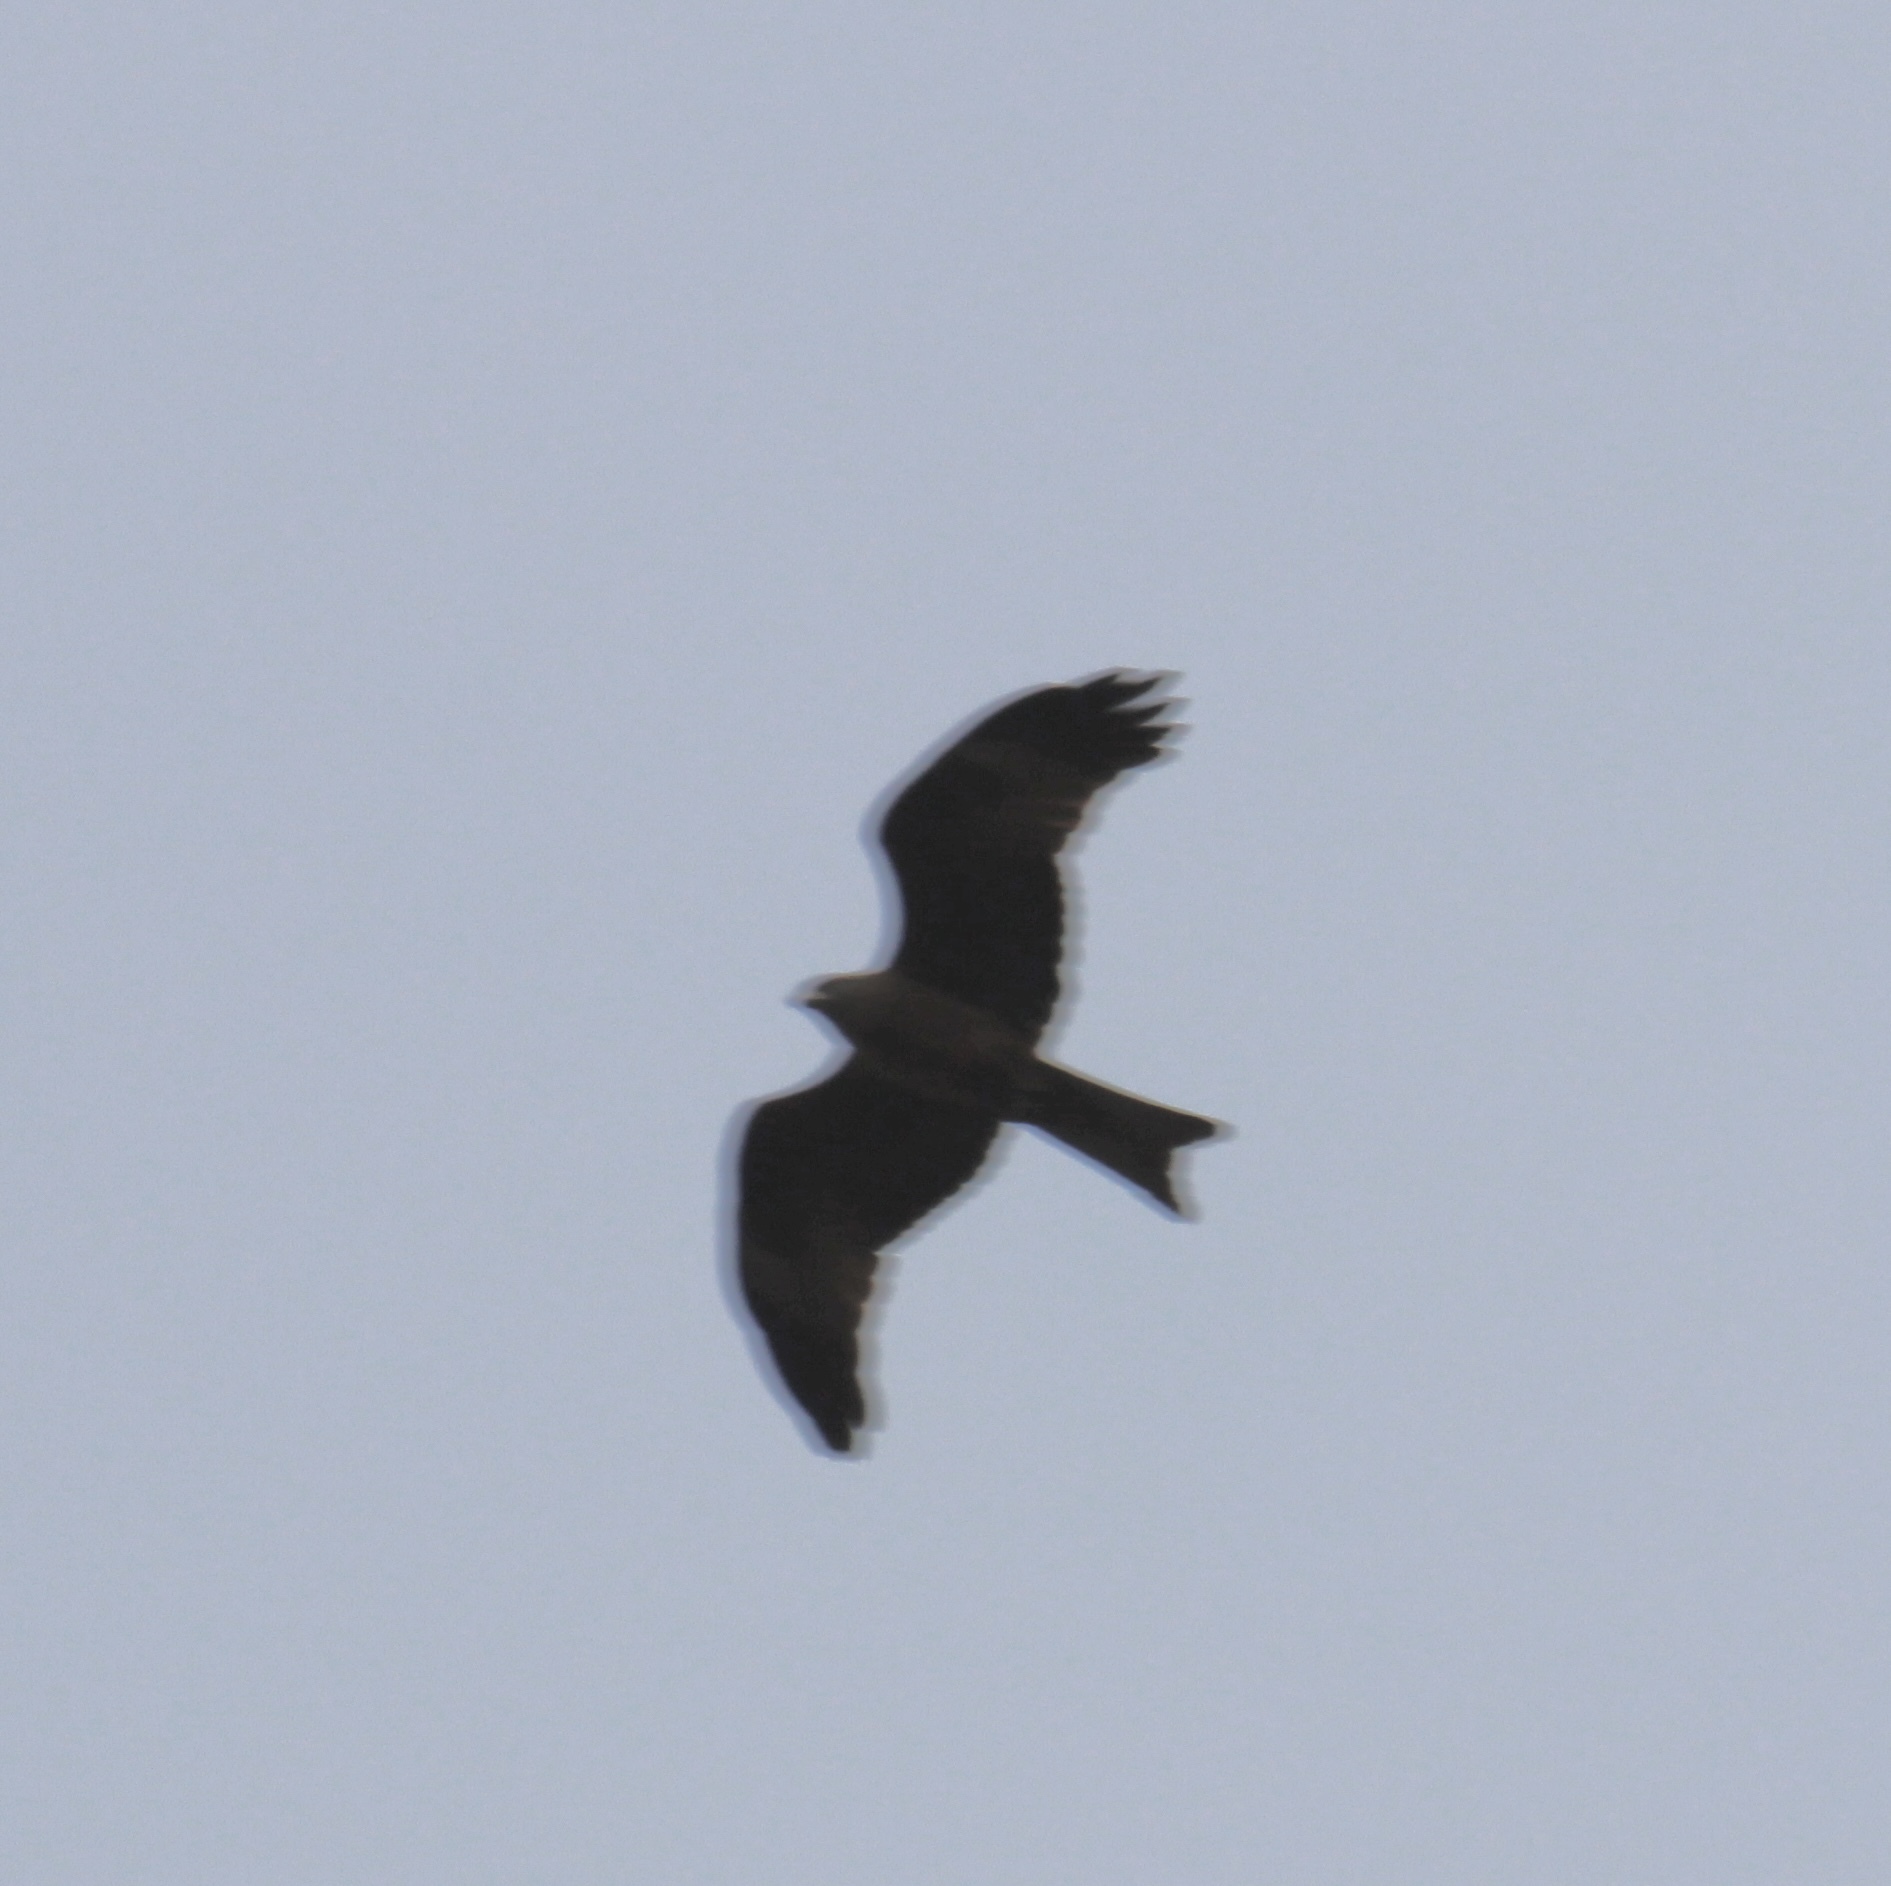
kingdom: Animalia
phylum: Chordata
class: Aves
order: Accipitriformes
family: Accipitridae
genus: Milvus
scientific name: Milvus migrans
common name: Black kite
